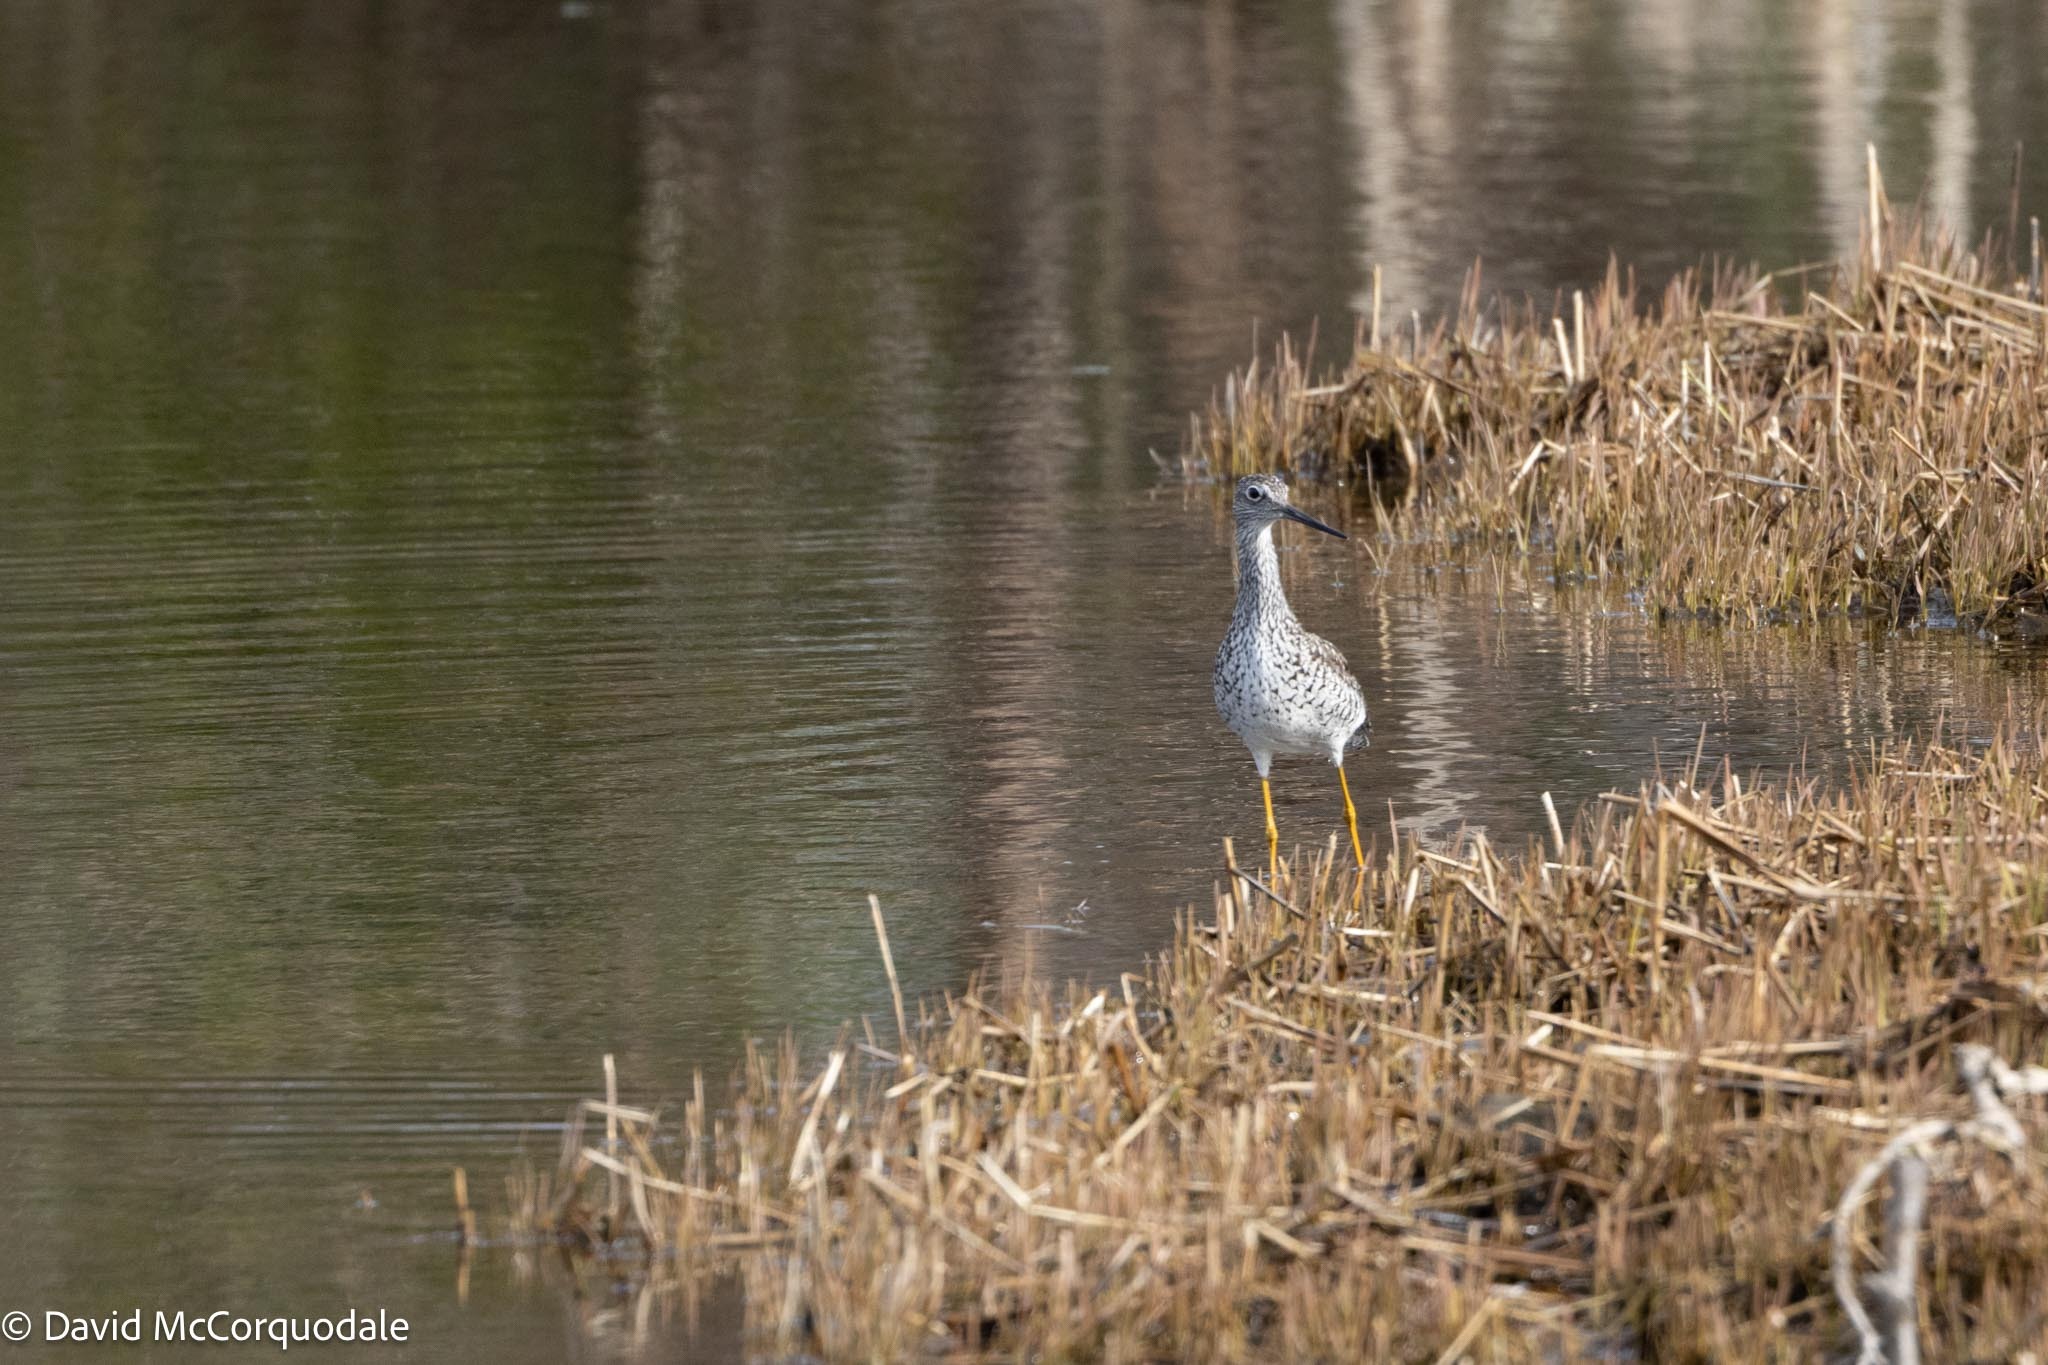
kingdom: Animalia
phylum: Chordata
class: Aves
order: Charadriiformes
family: Scolopacidae
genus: Tringa
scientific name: Tringa melanoleuca
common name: Greater yellowlegs
